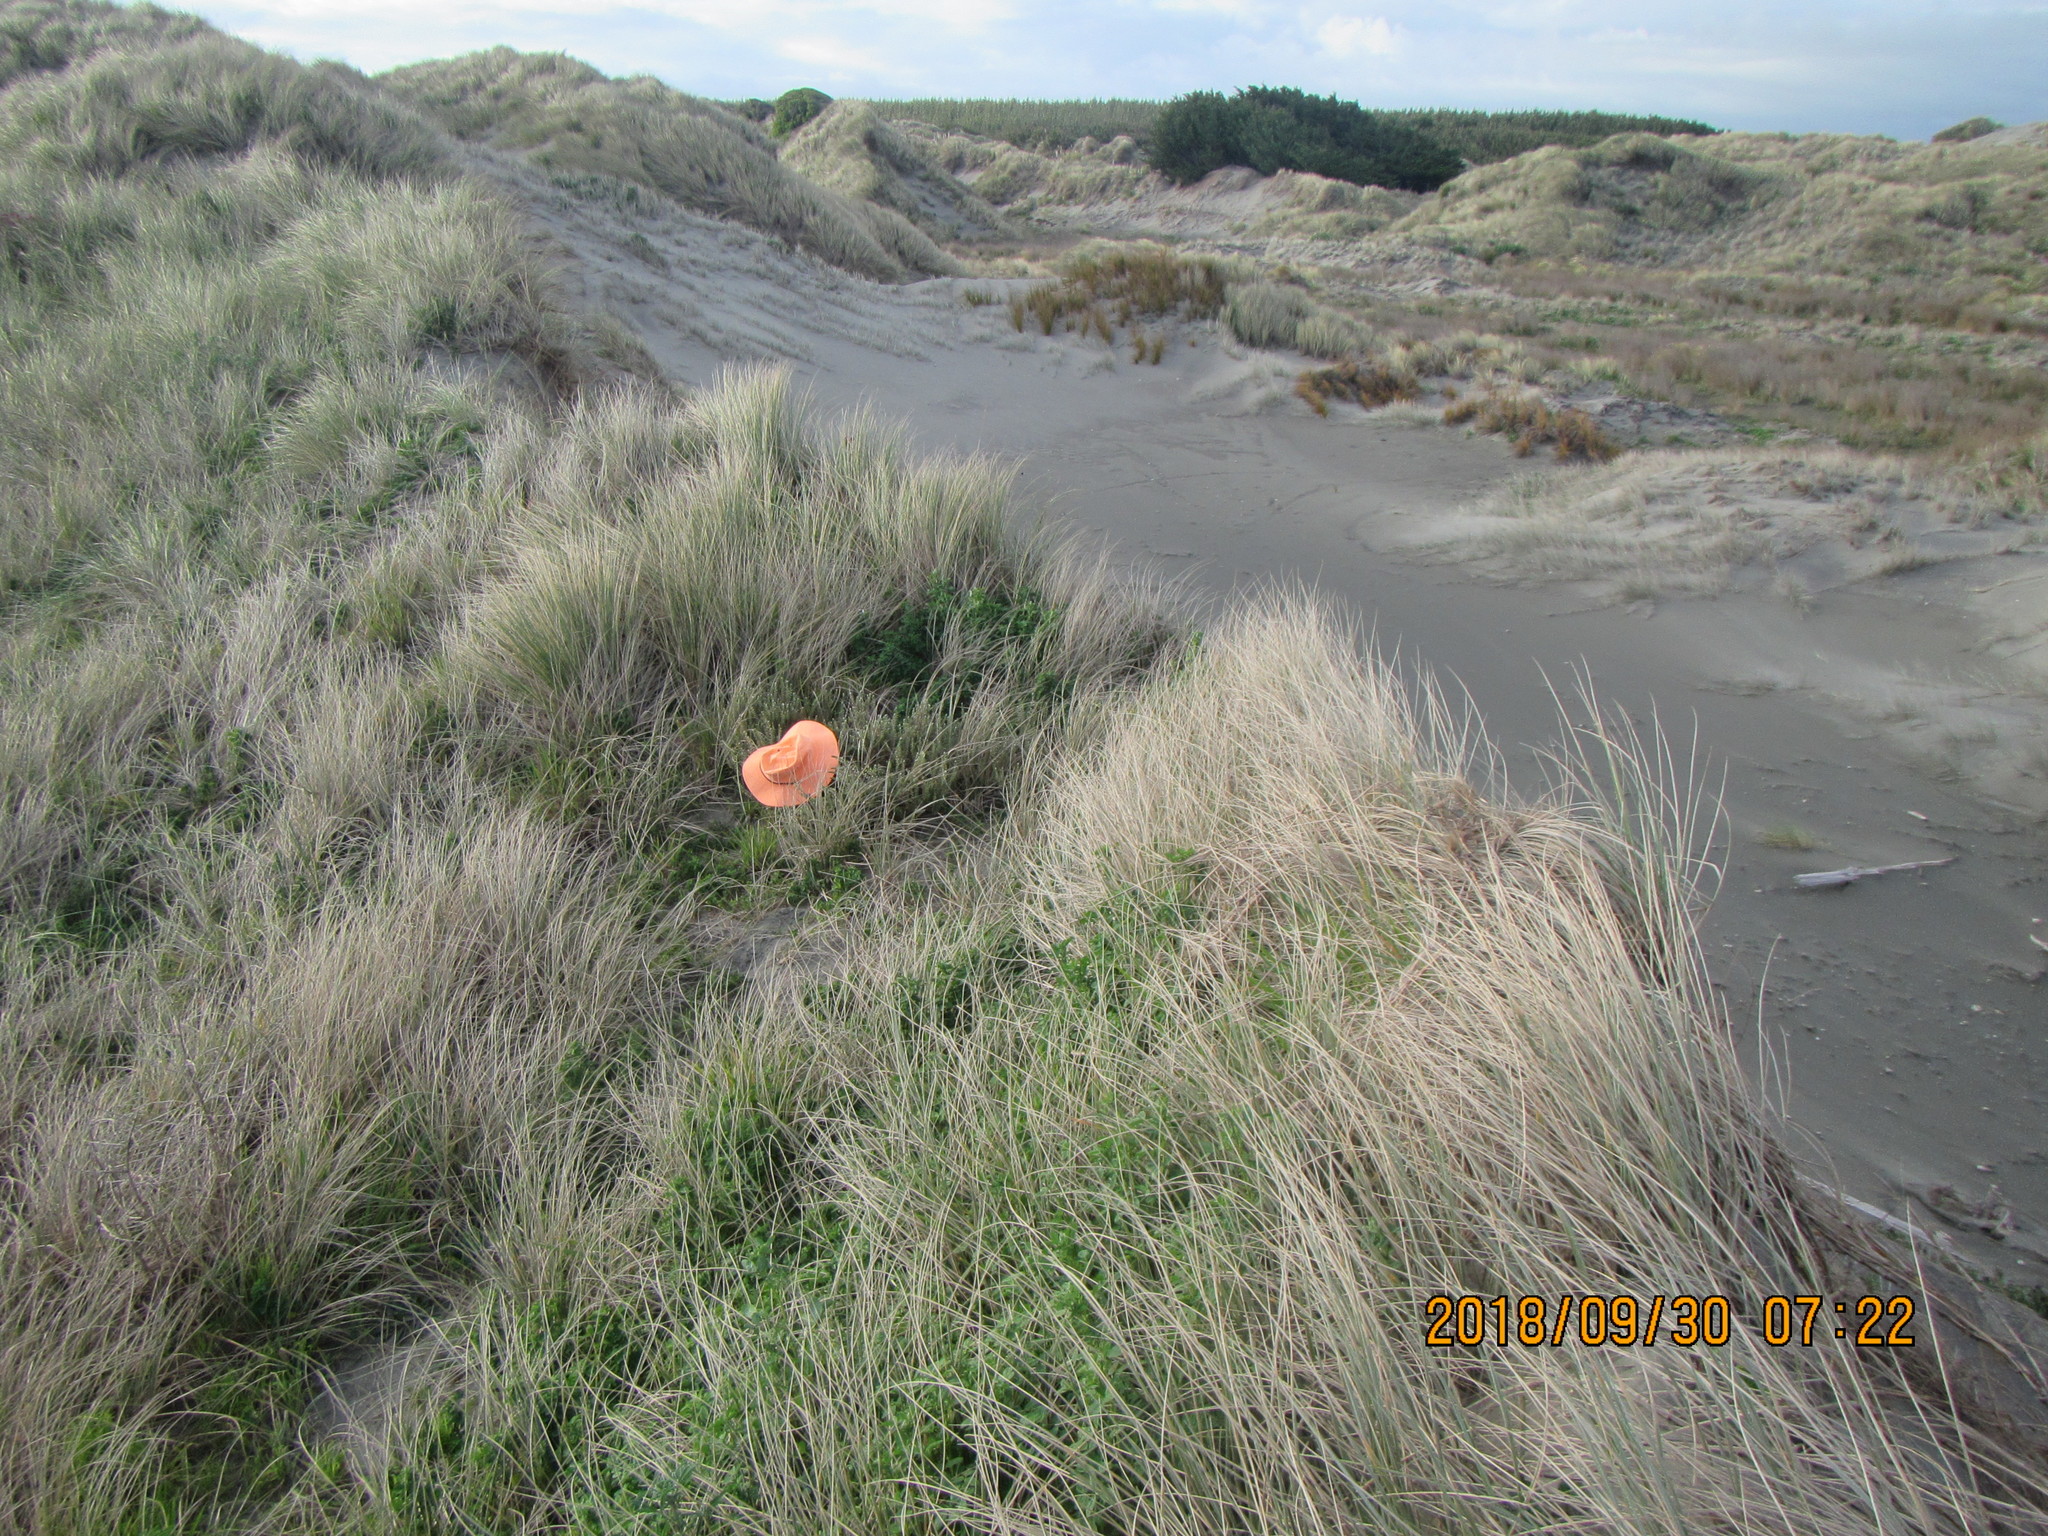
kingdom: Plantae
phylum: Tracheophyta
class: Magnoliopsida
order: Malvales
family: Thymelaeaceae
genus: Pimelea
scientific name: Pimelea villosa
